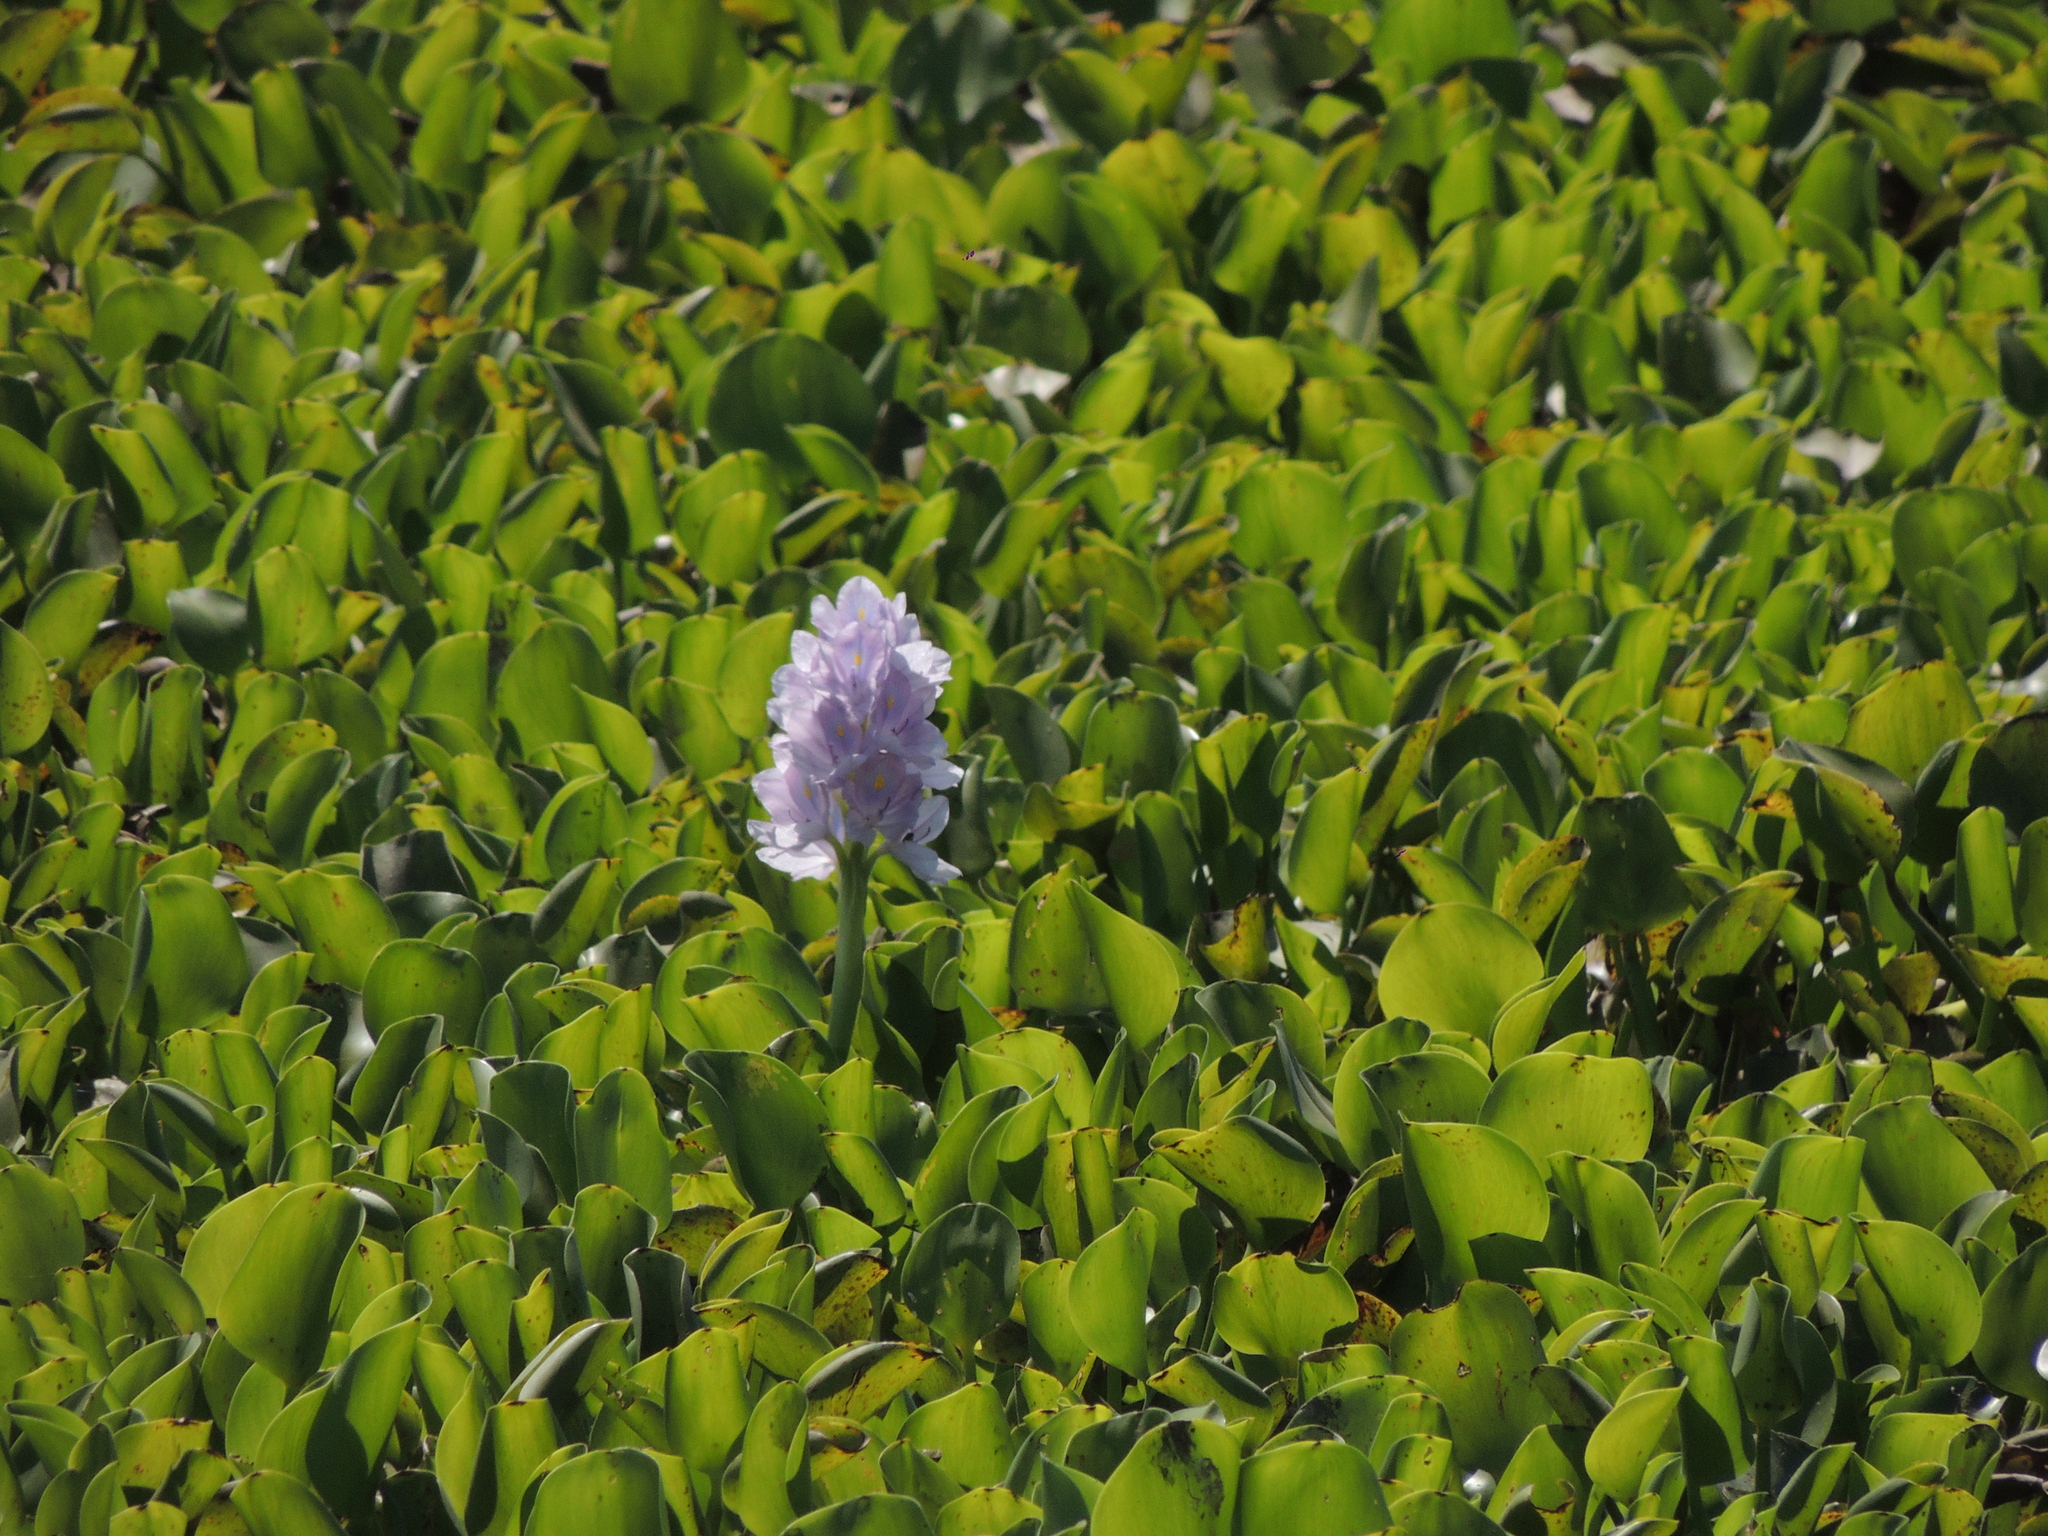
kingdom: Plantae
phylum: Tracheophyta
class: Liliopsida
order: Commelinales
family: Pontederiaceae
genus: Pontederia
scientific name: Pontederia crassipes
